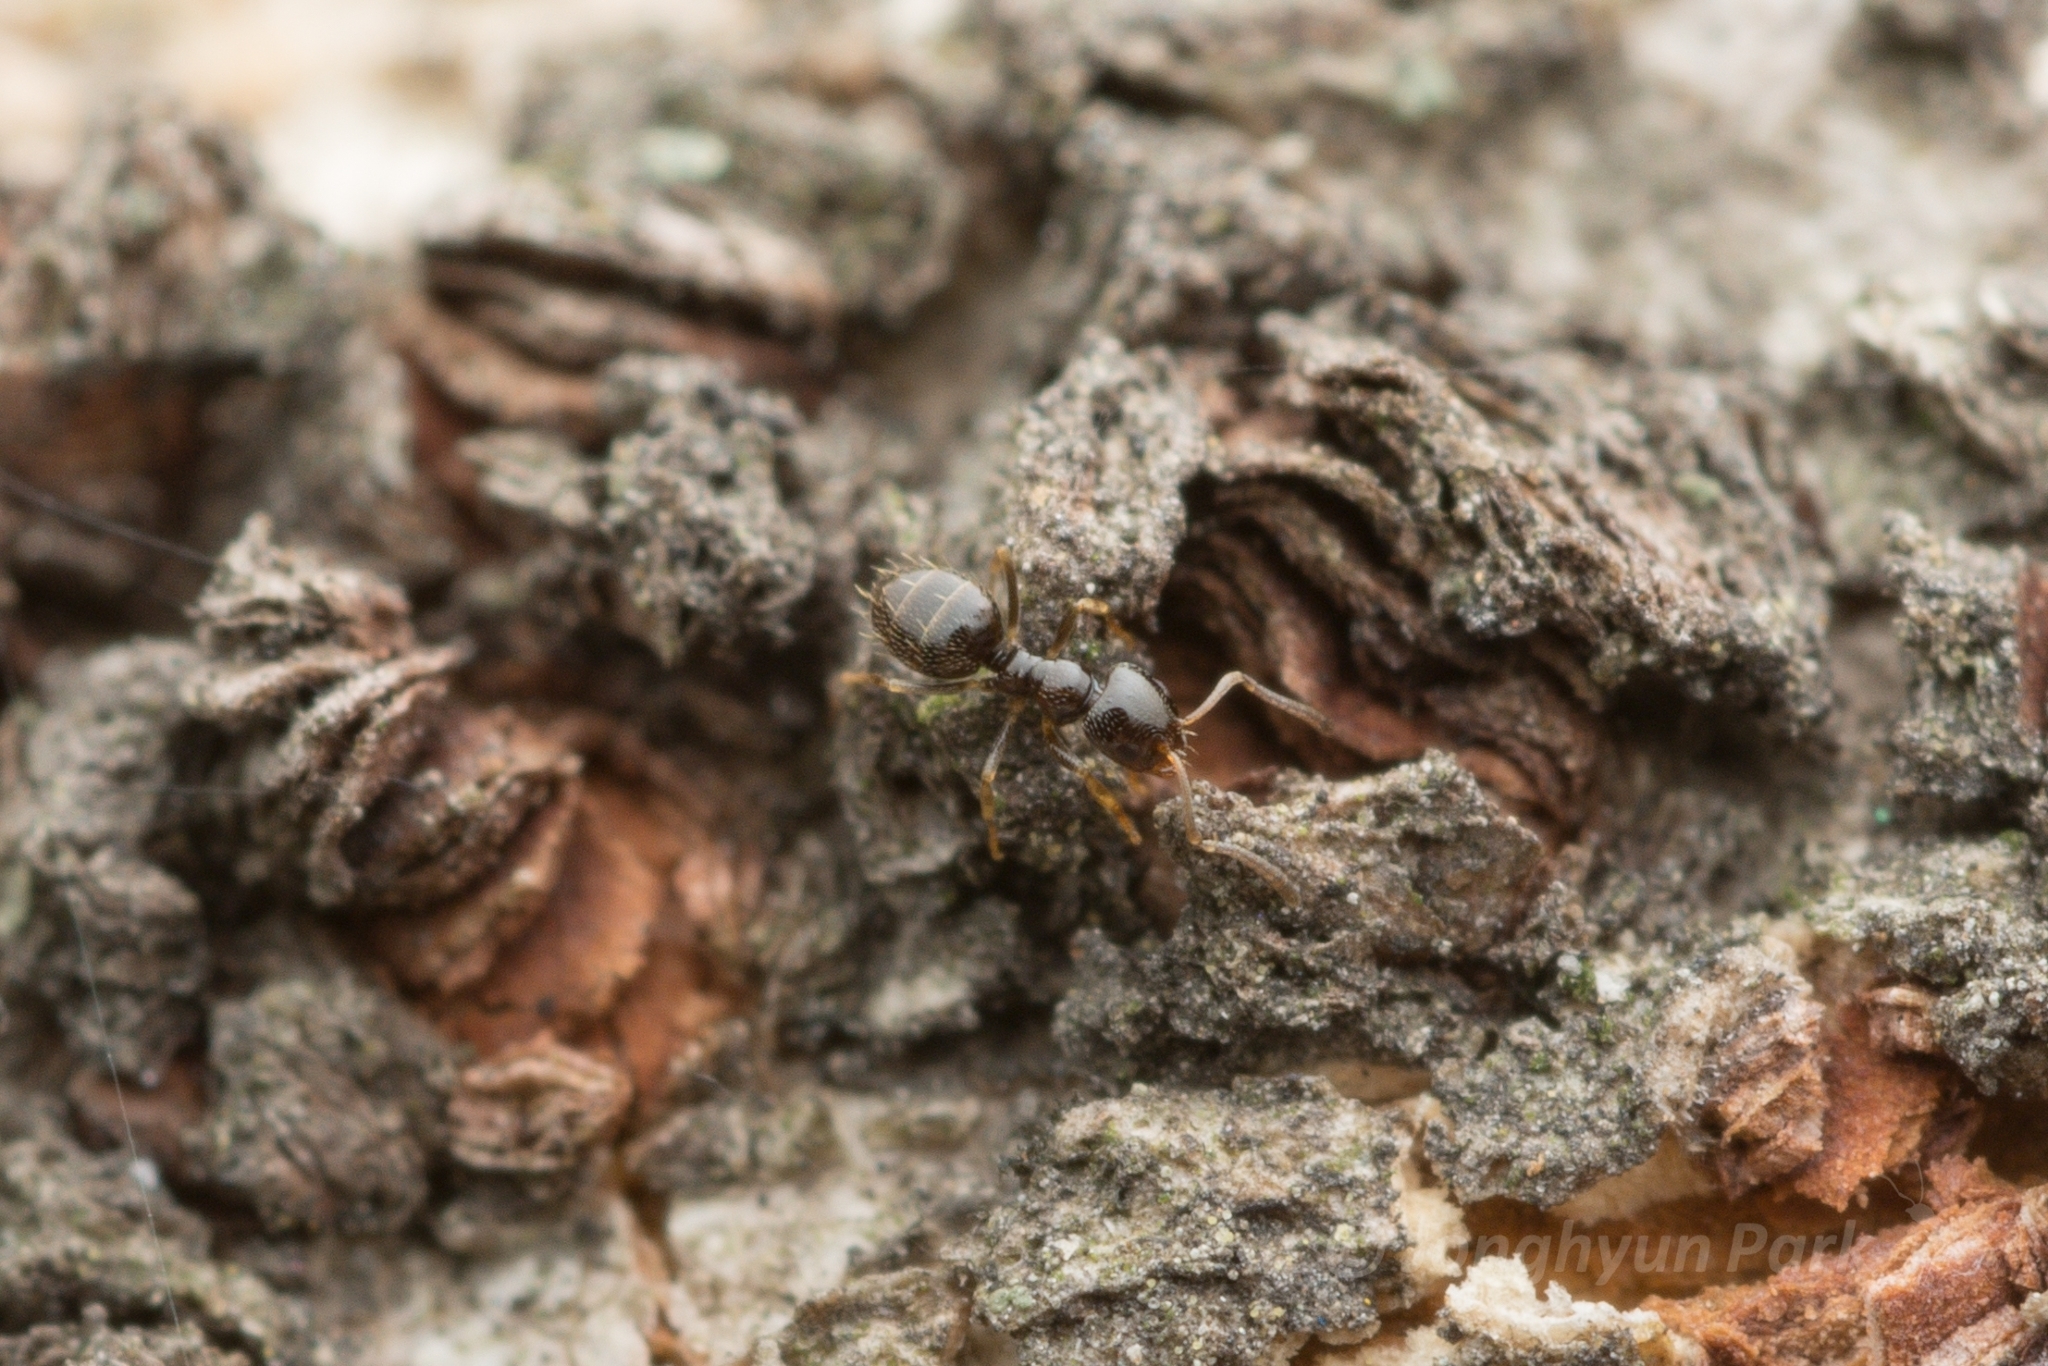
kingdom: Animalia
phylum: Arthropoda
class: Insecta
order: Hymenoptera
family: Formicidae
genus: Plagiolepis
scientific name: Plagiolepis manczshurica
